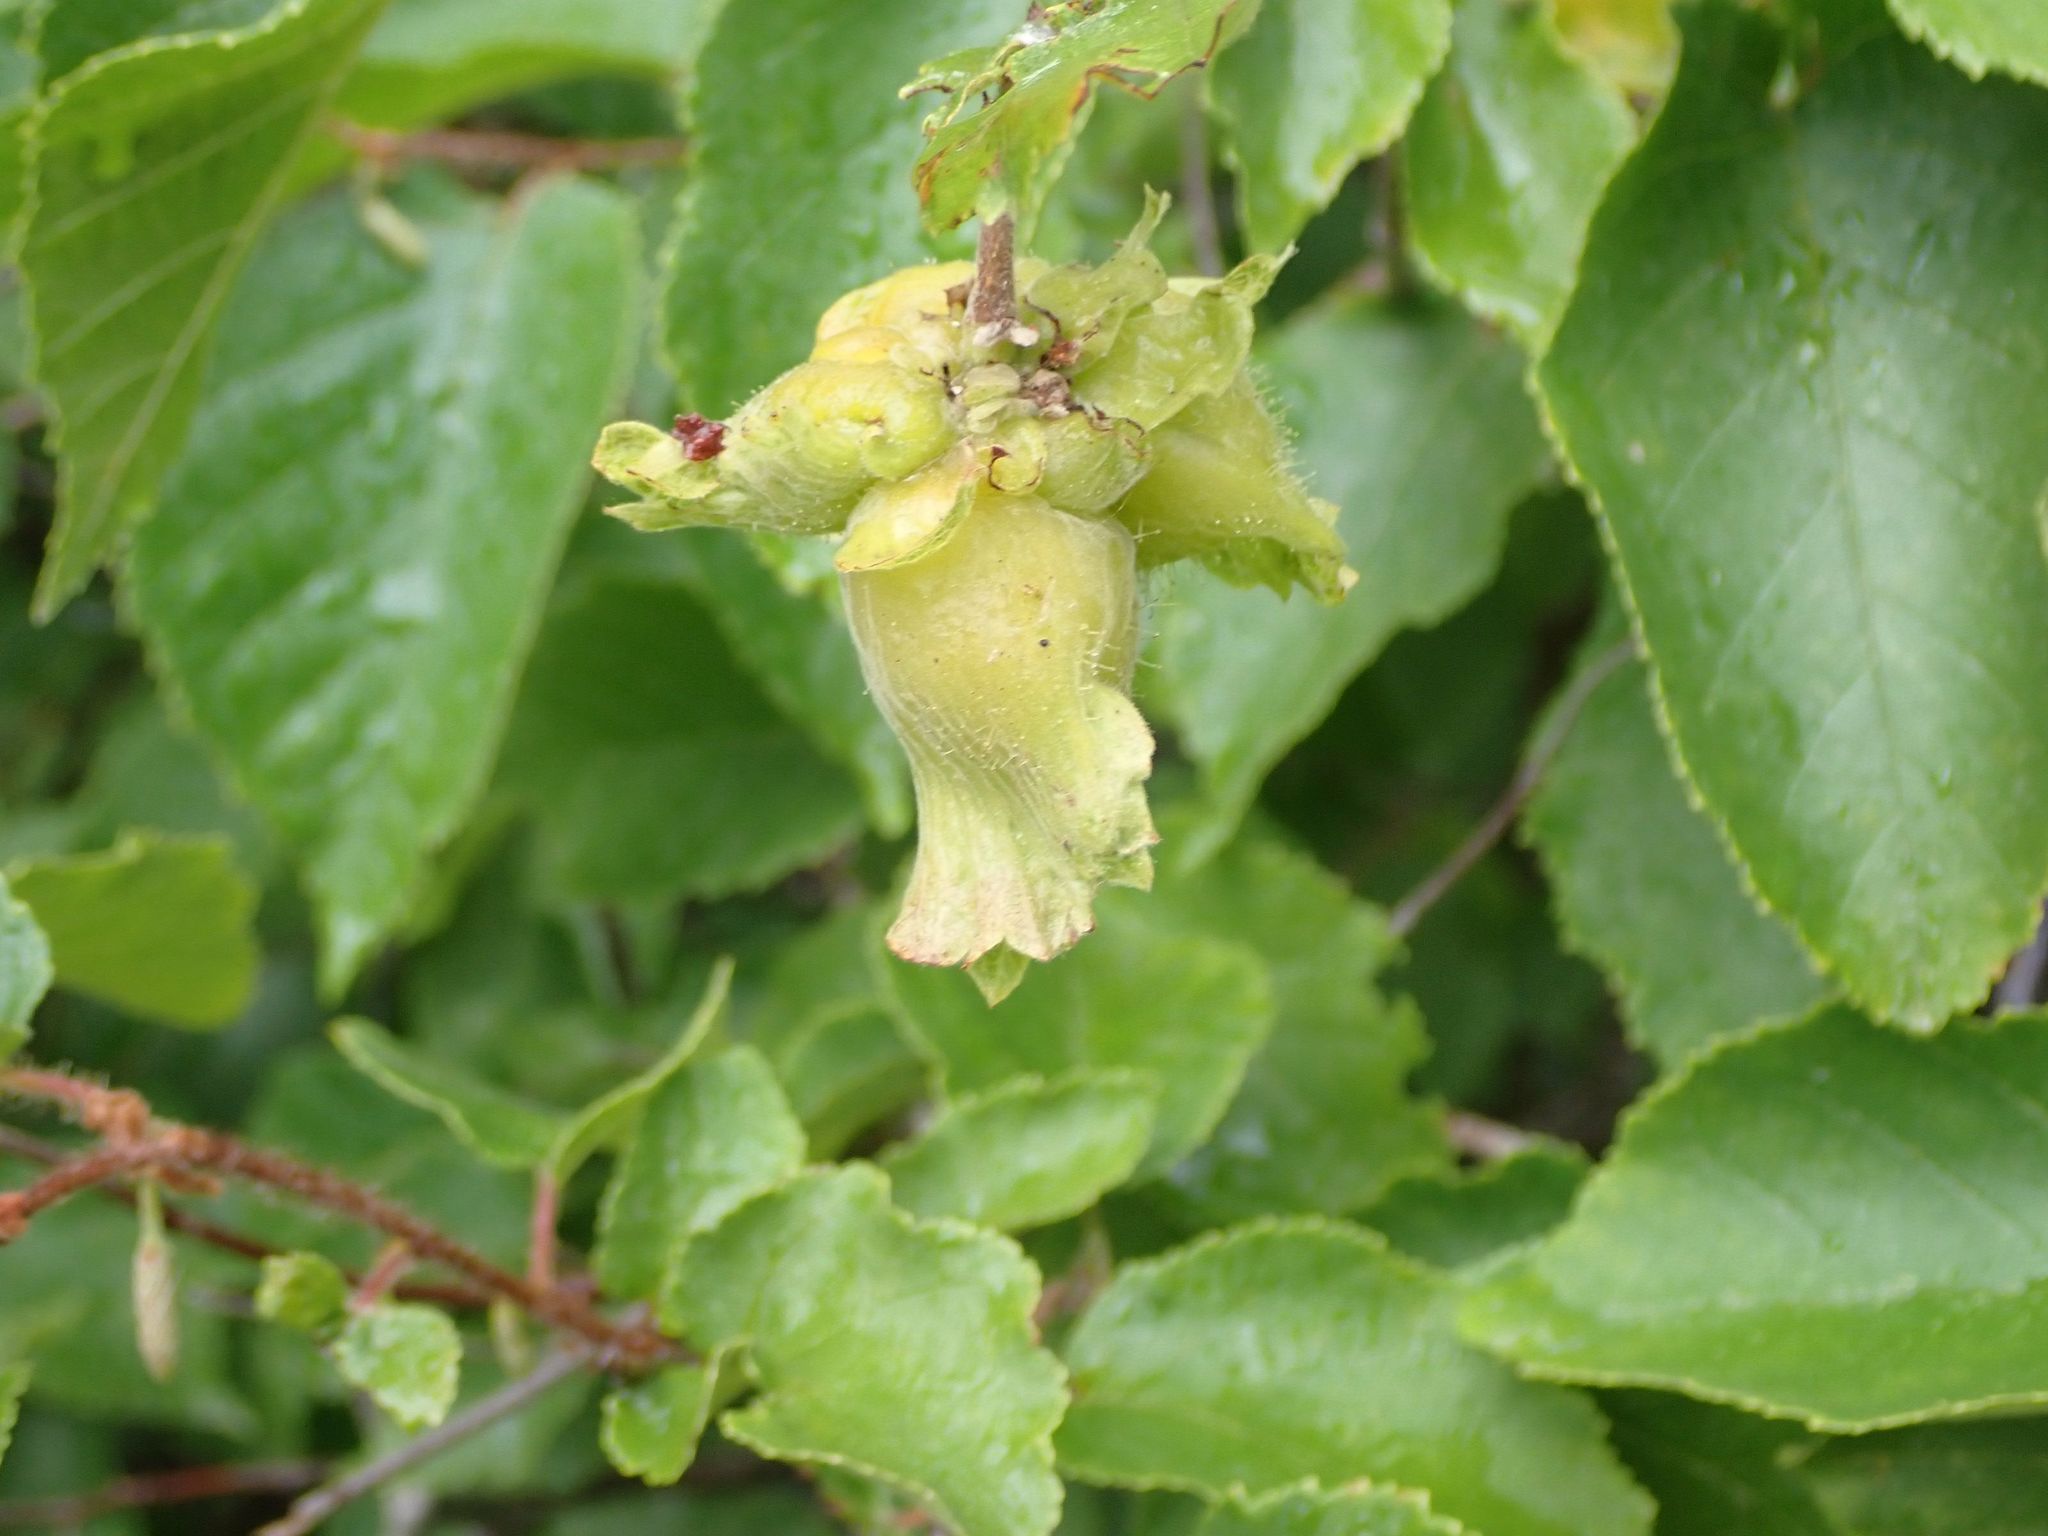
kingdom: Plantae
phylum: Tracheophyta
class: Magnoliopsida
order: Fagales
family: Betulaceae
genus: Corylus
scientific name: Corylus americana
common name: American hazel
